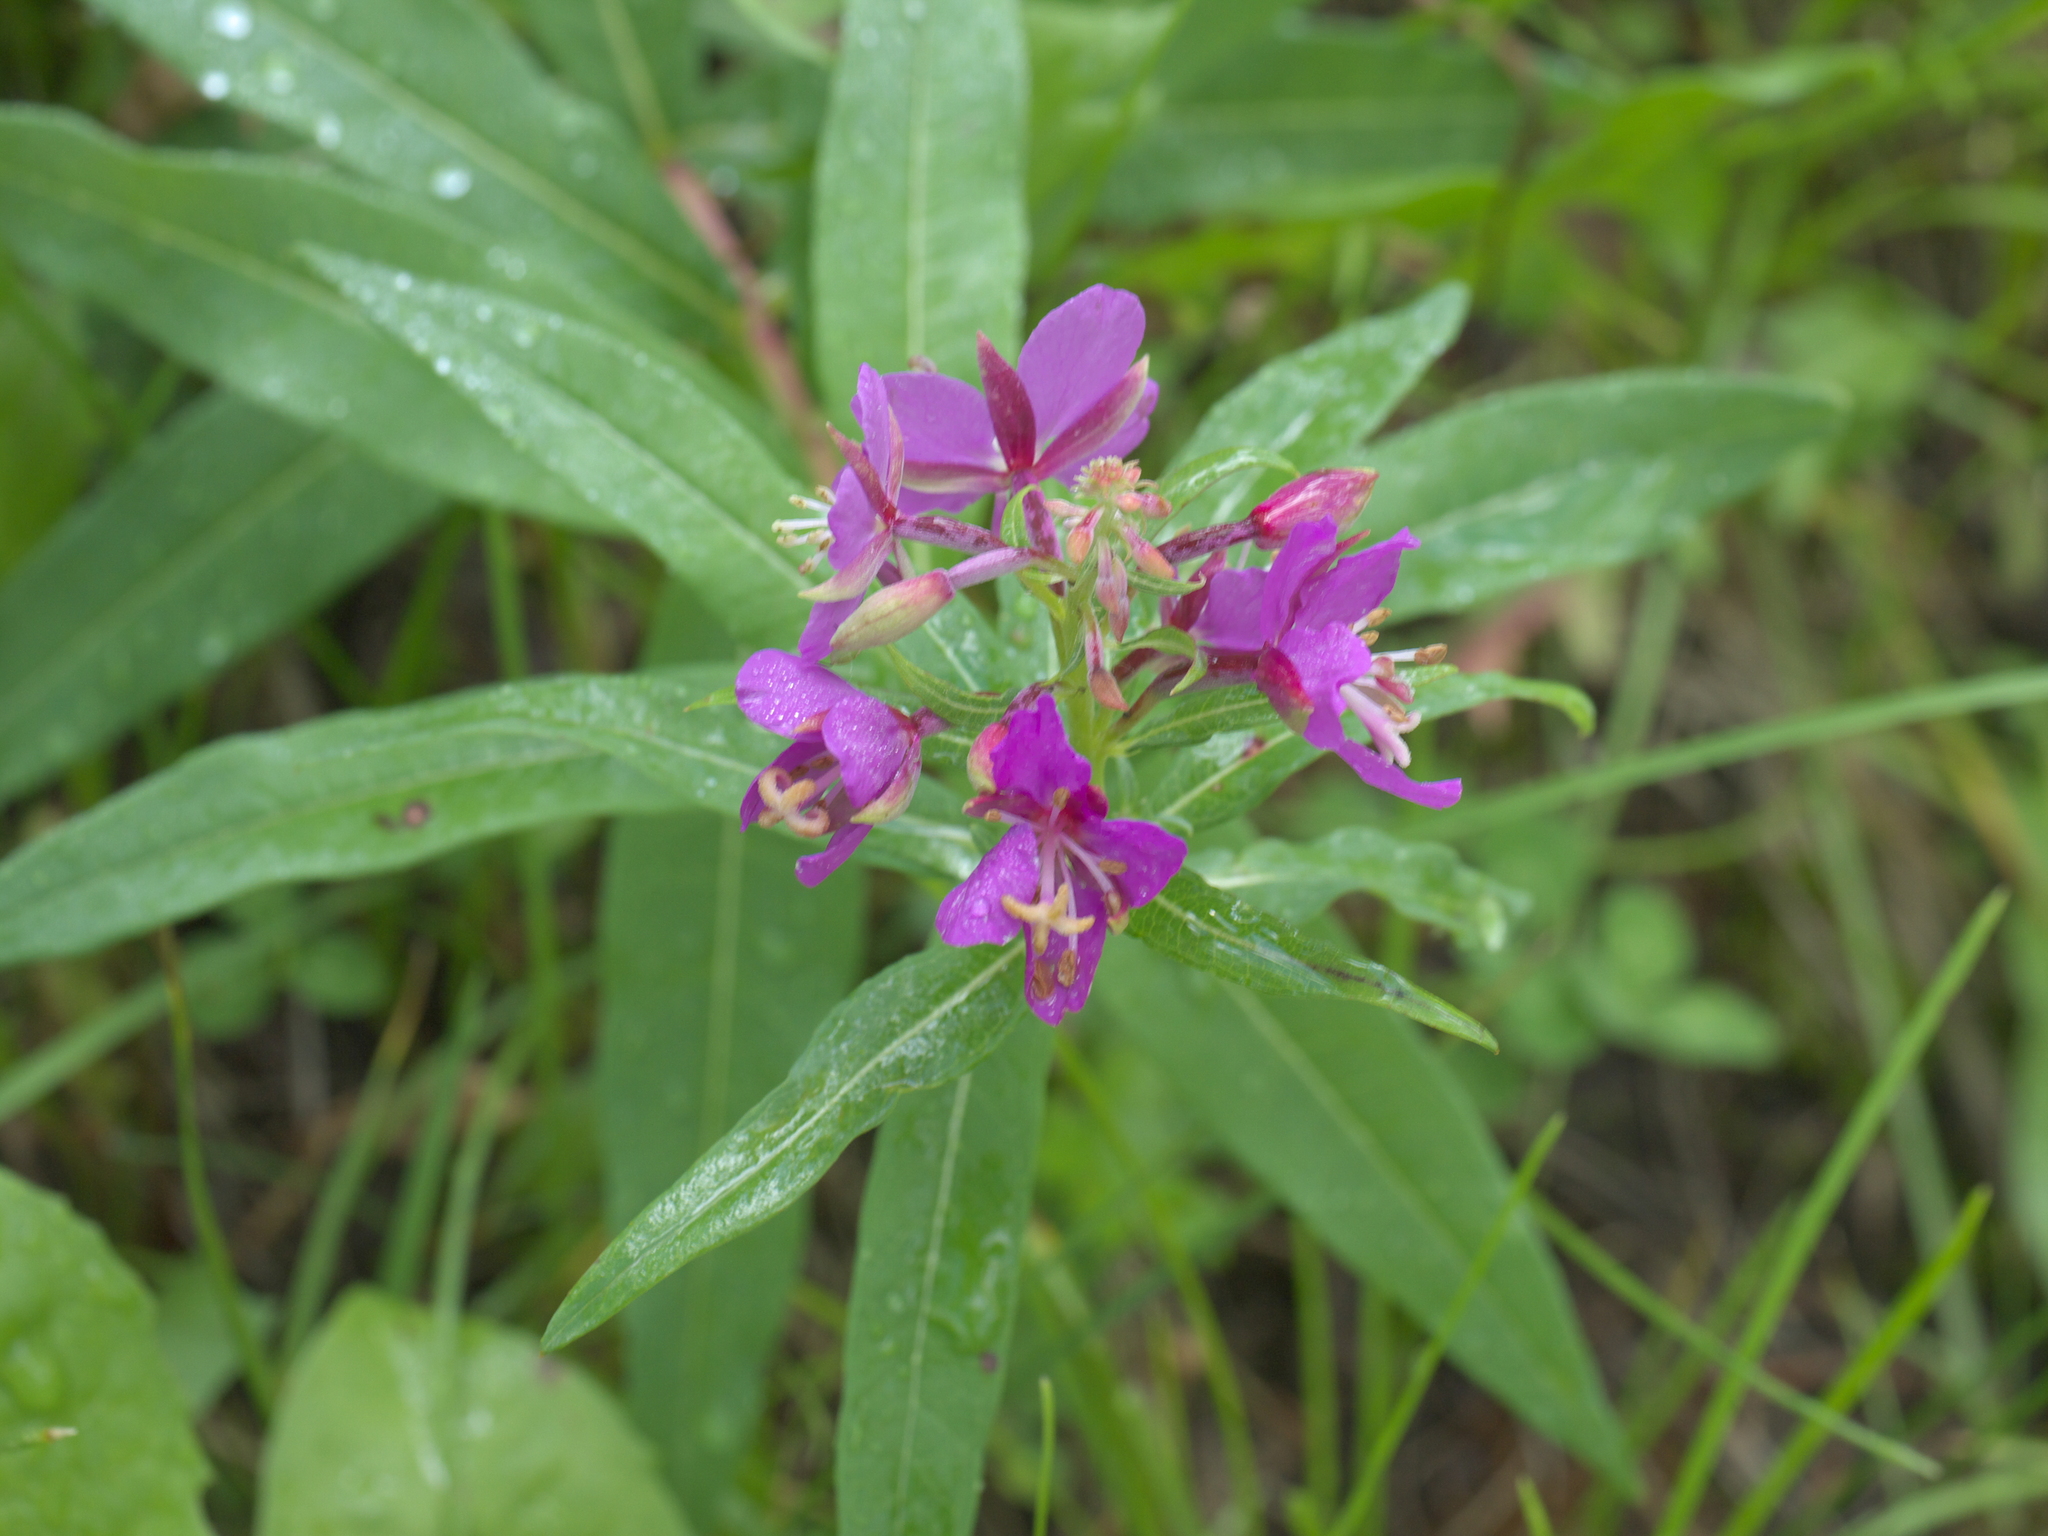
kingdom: Plantae
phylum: Tracheophyta
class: Magnoliopsida
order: Myrtales
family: Onagraceae
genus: Chamaenerion
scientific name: Chamaenerion angustifolium
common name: Fireweed
